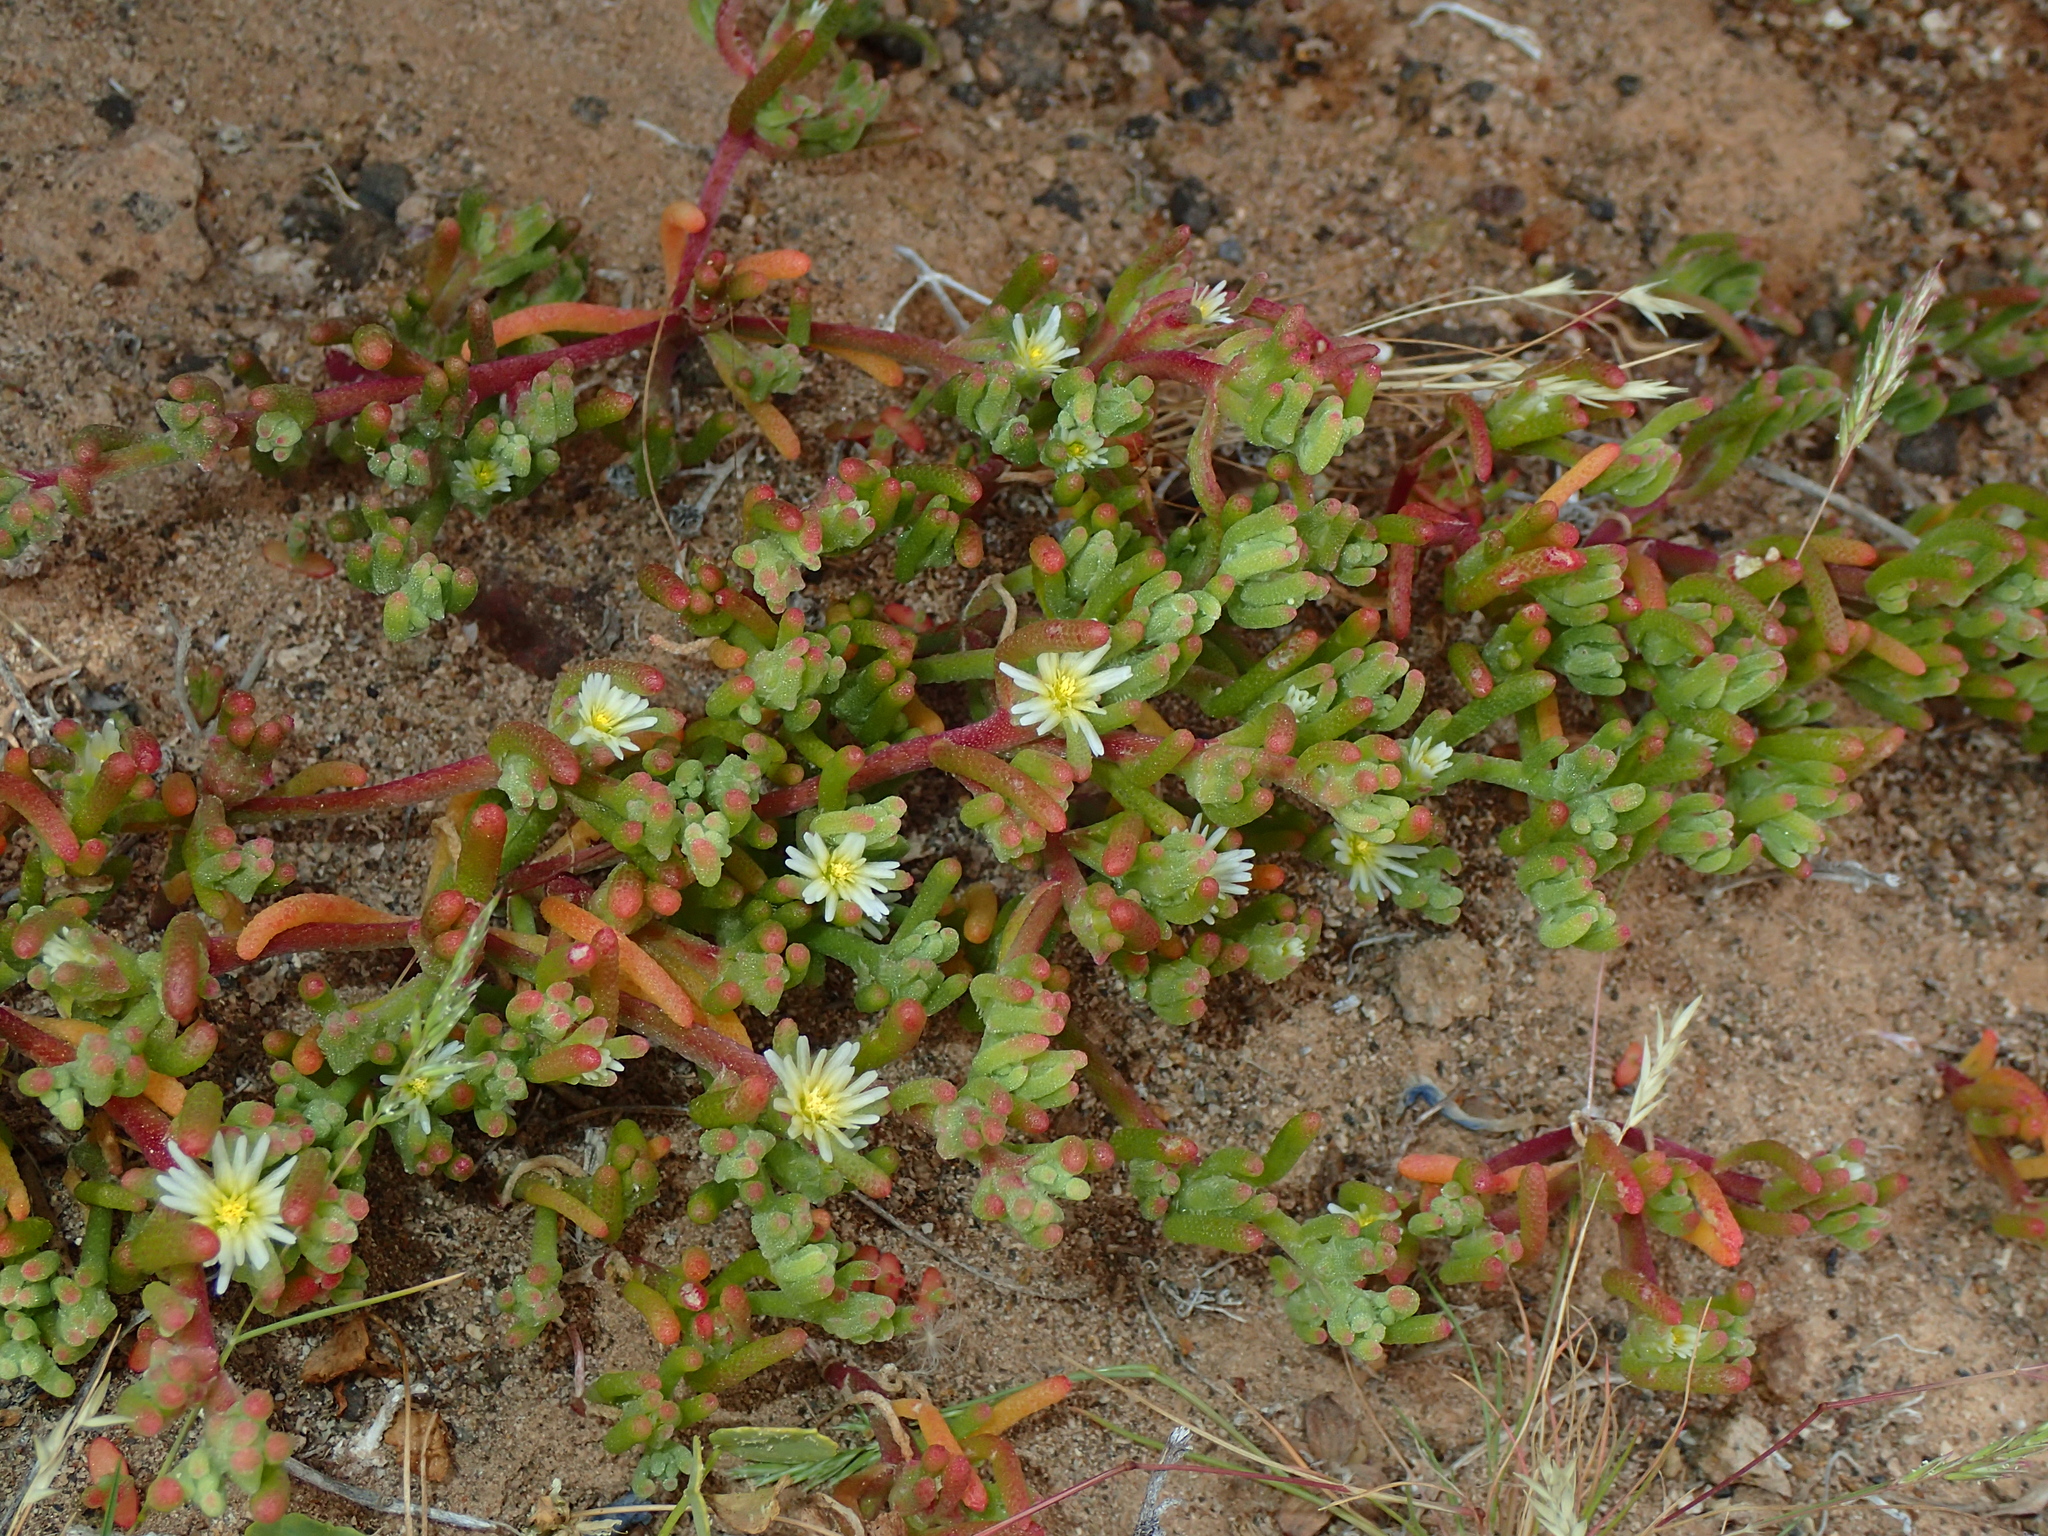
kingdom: Plantae
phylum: Tracheophyta
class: Magnoliopsida
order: Caryophyllales
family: Aizoaceae
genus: Mesembryanthemum
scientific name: Mesembryanthemum nodiflorum
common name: Slenderleaf iceplant
